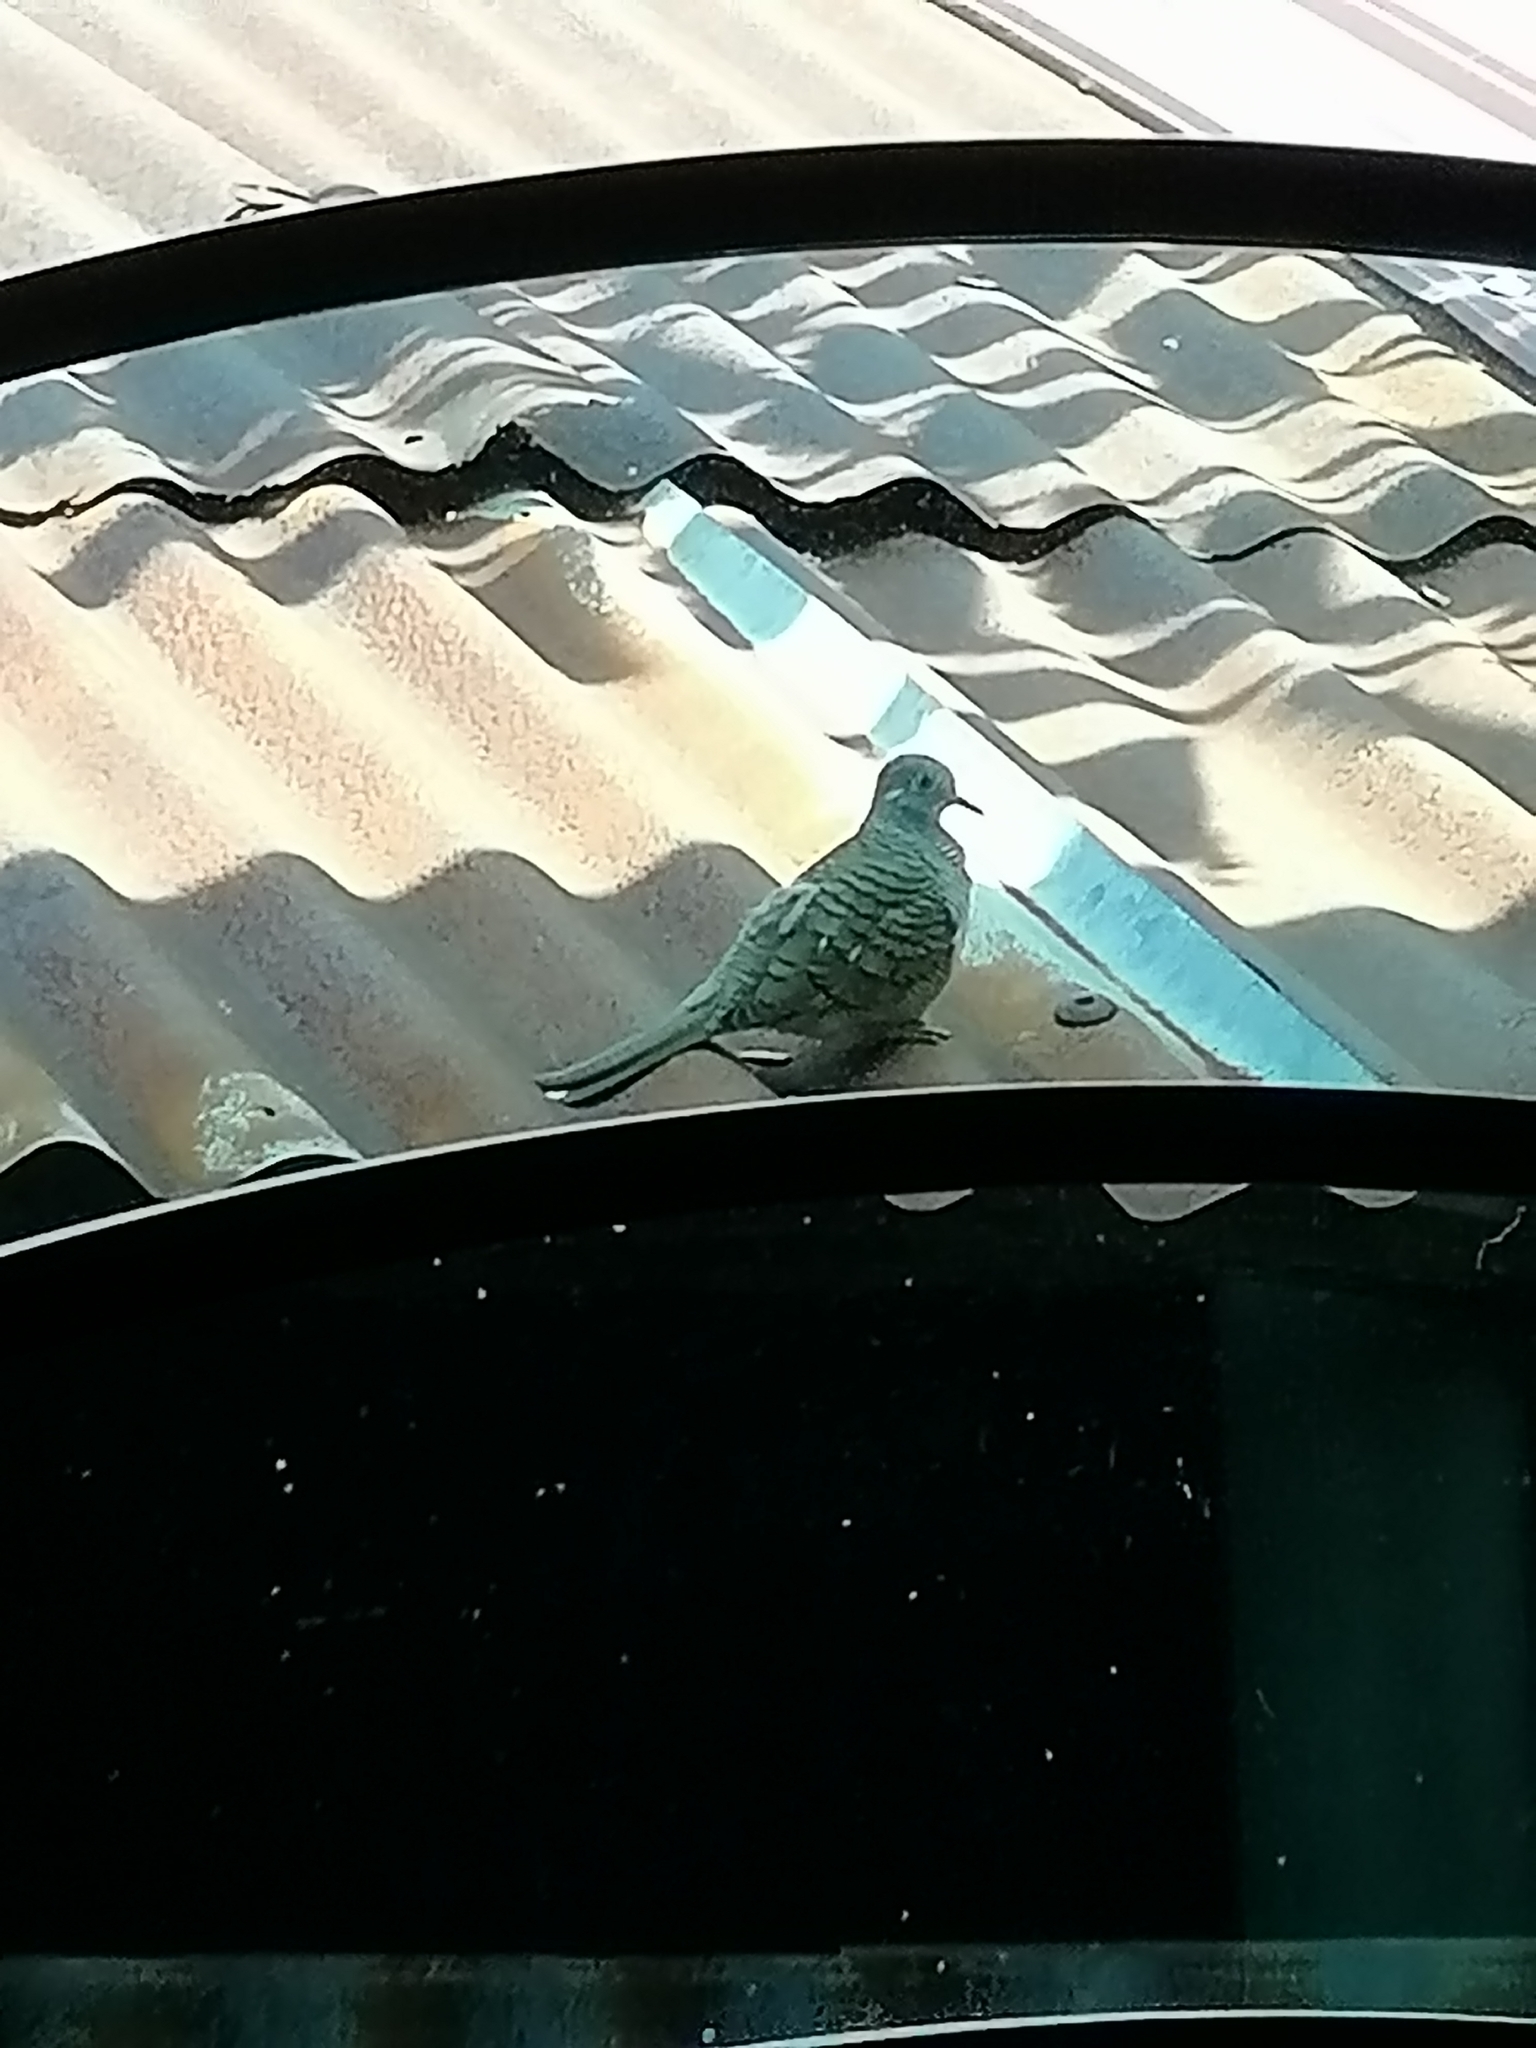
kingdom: Animalia
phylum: Chordata
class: Aves
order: Columbiformes
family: Columbidae
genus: Geopelia
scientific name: Geopelia striata
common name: Zebra dove
